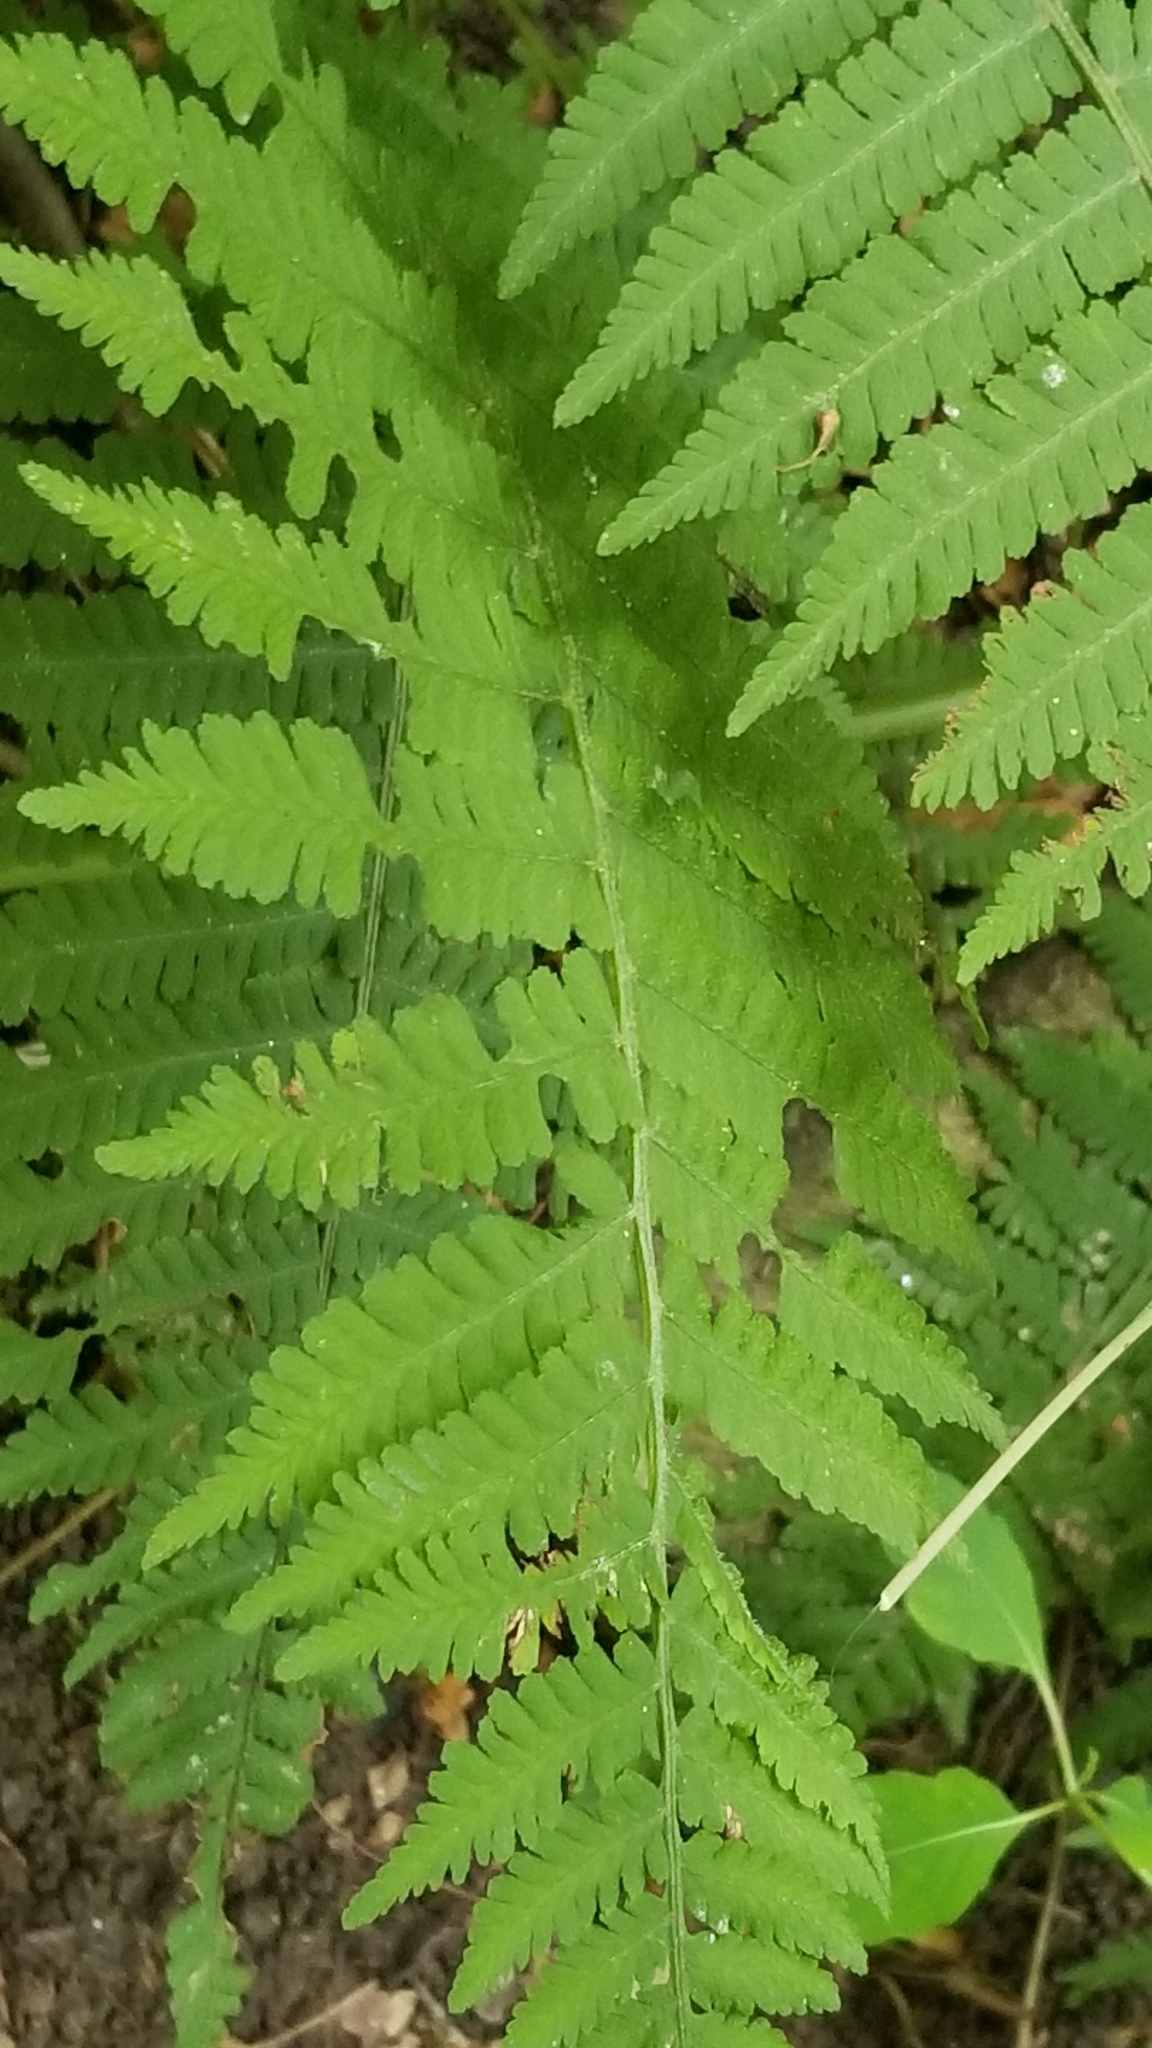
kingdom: Plantae
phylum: Tracheophyta
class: Polypodiopsida
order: Polypodiales
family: Athyriaceae
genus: Deparia
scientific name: Deparia acrostichoides
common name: Silver false spleenwort
